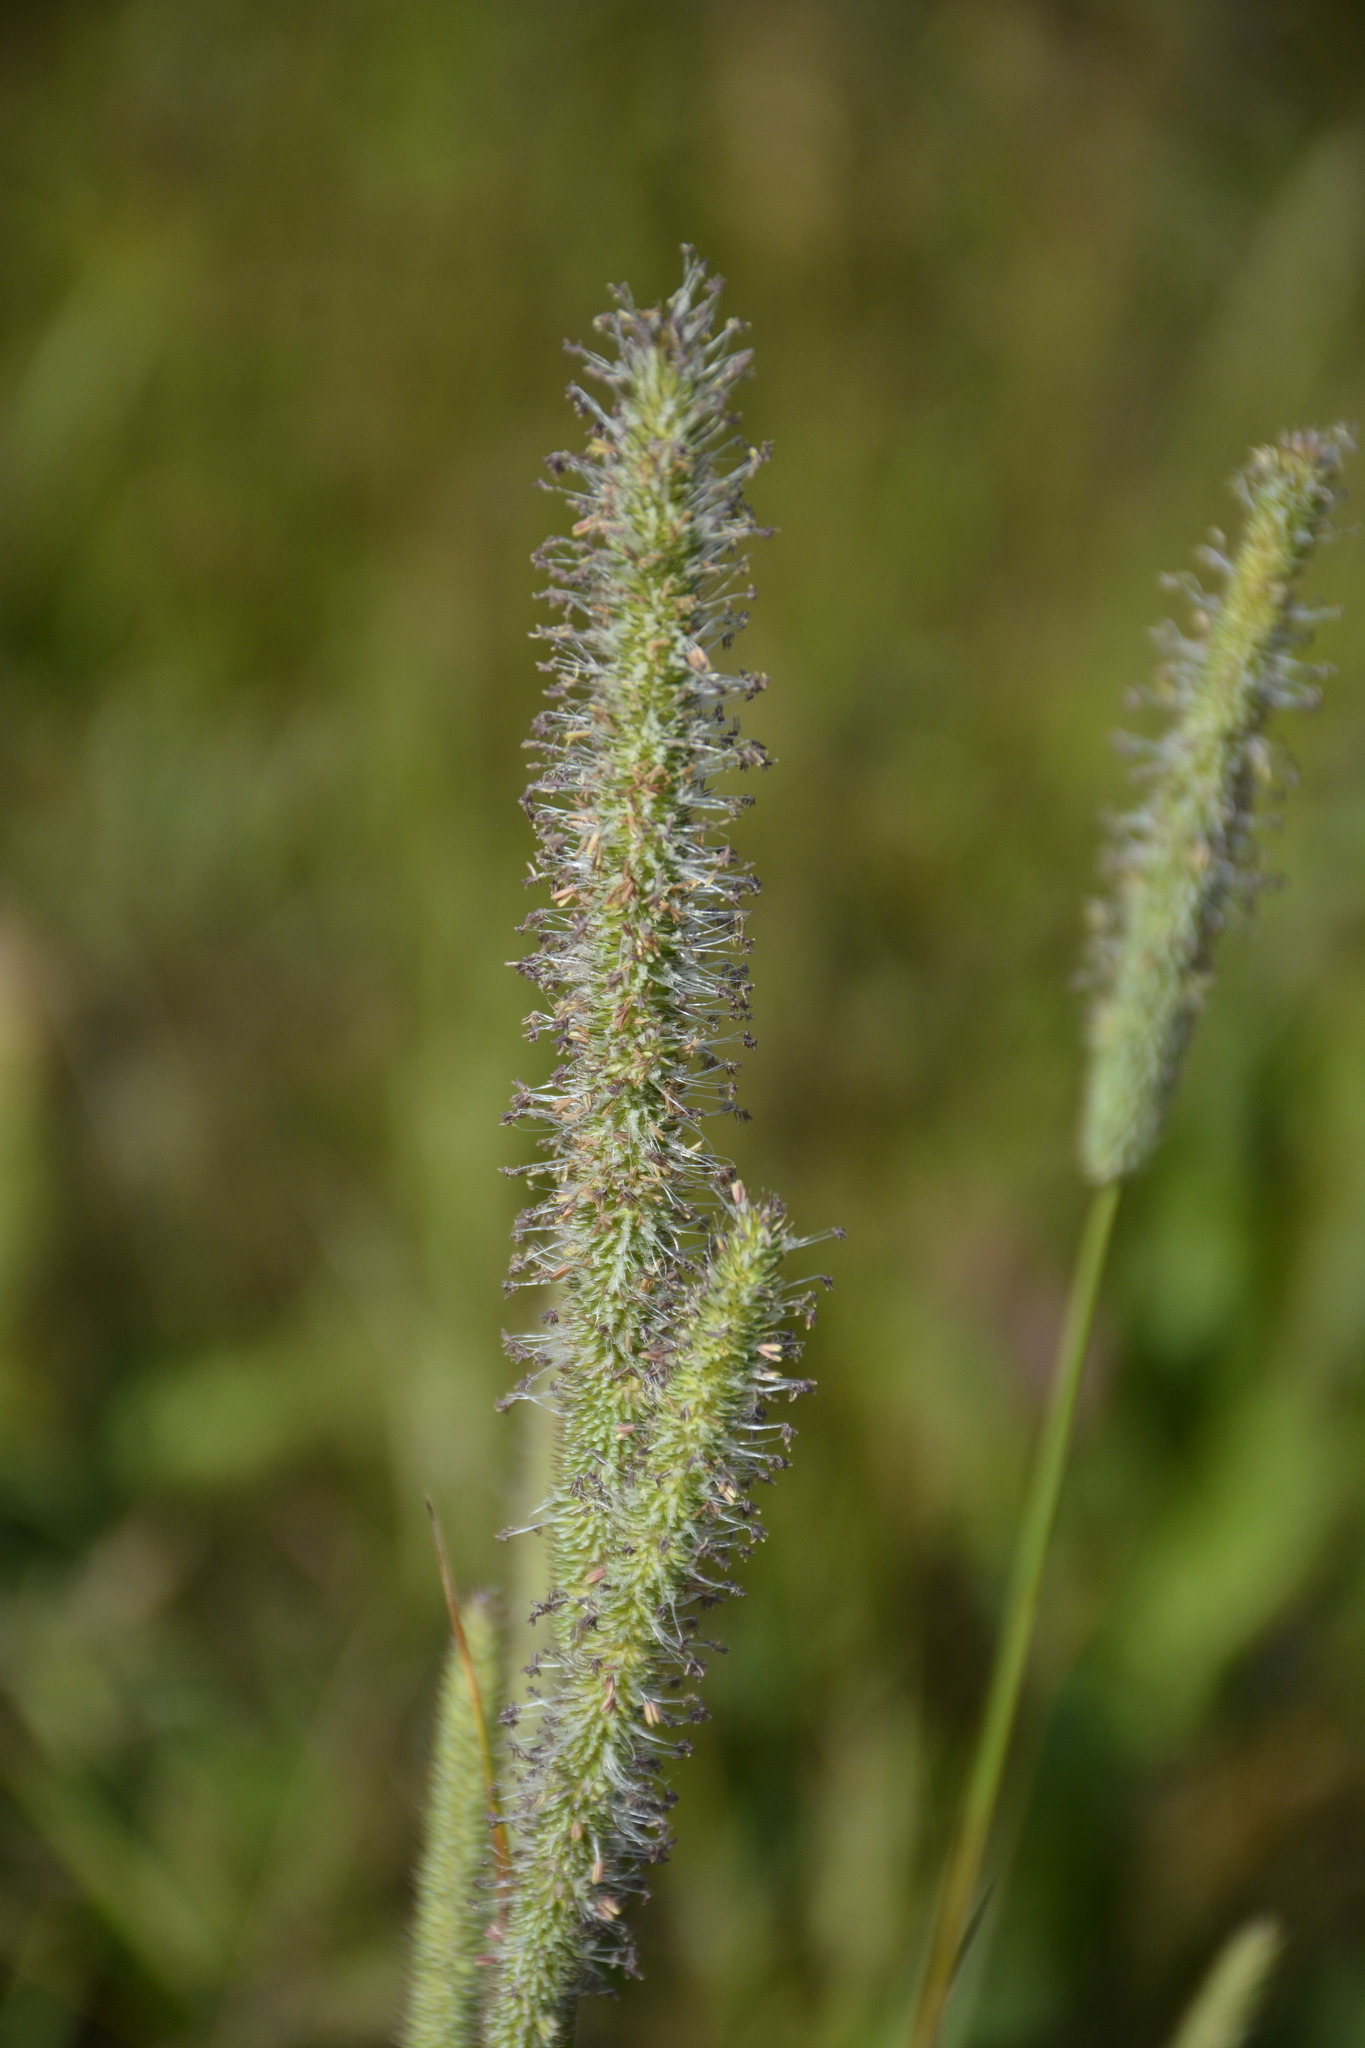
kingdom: Plantae
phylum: Tracheophyta
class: Liliopsida
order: Poales
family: Poaceae
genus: Phleum
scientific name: Phleum pratense
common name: Timothy grass
